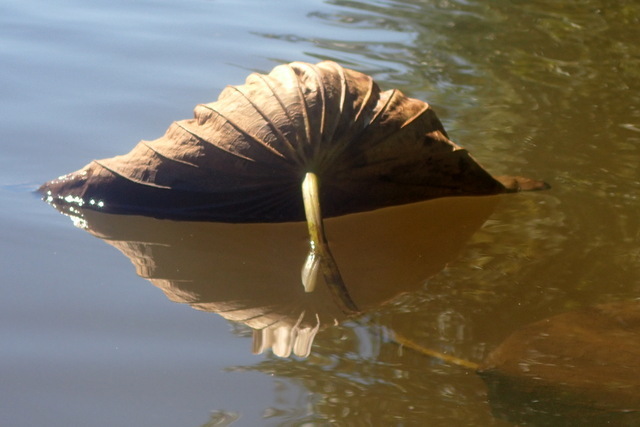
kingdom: Plantae
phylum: Tracheophyta
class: Magnoliopsida
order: Proteales
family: Nelumbonaceae
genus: Nelumbo
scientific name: Nelumbo lutea
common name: American lotus
